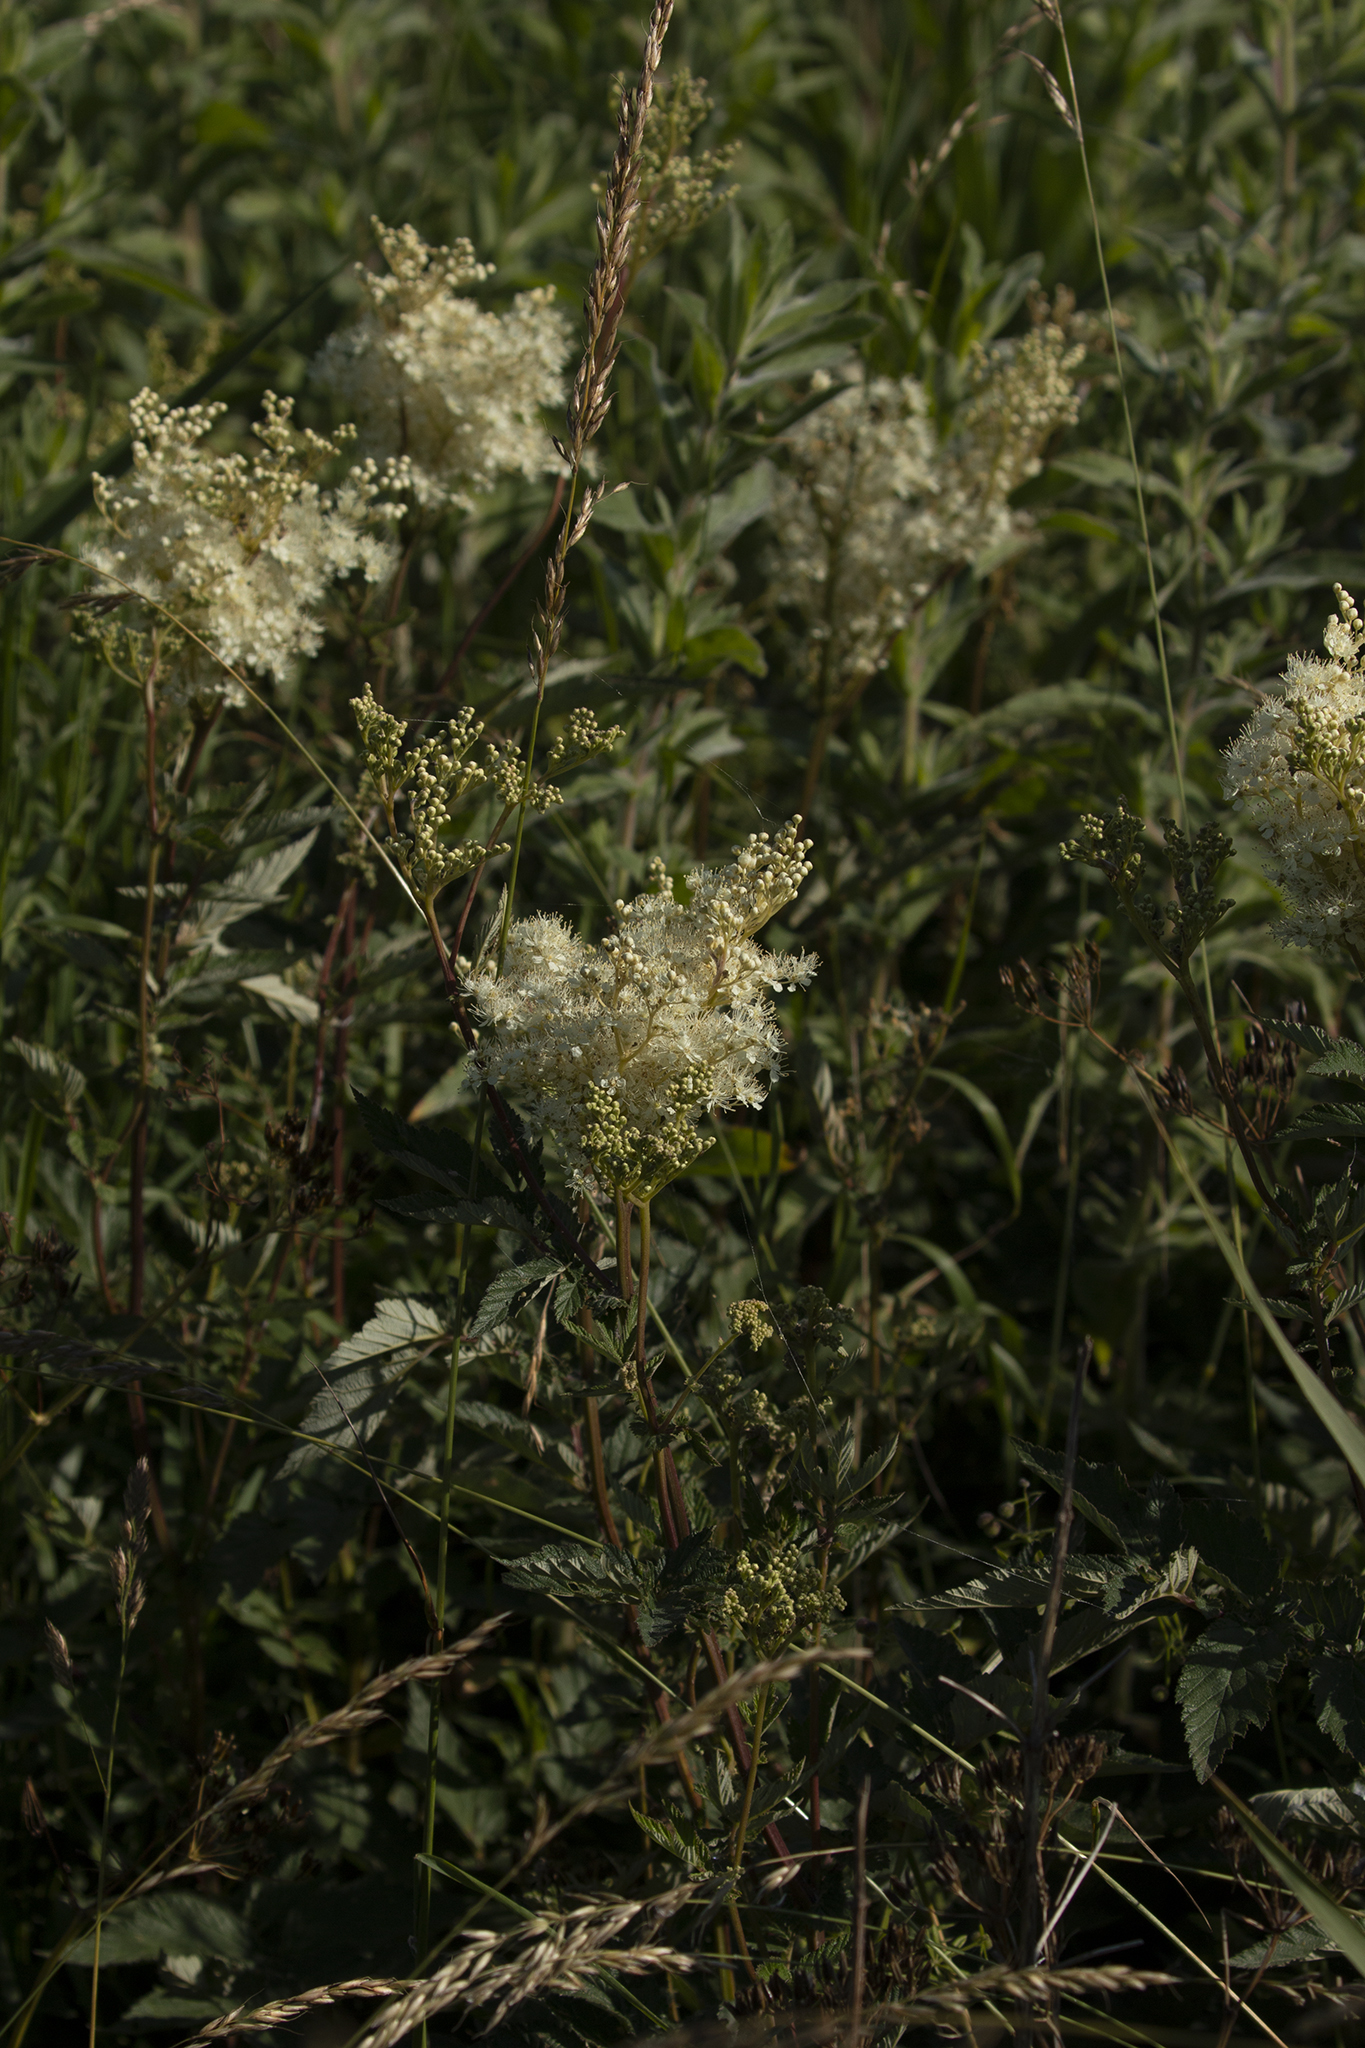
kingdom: Plantae
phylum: Tracheophyta
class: Magnoliopsida
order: Rosales
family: Rosaceae
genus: Filipendula
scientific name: Filipendula ulmaria
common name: Meadowsweet
